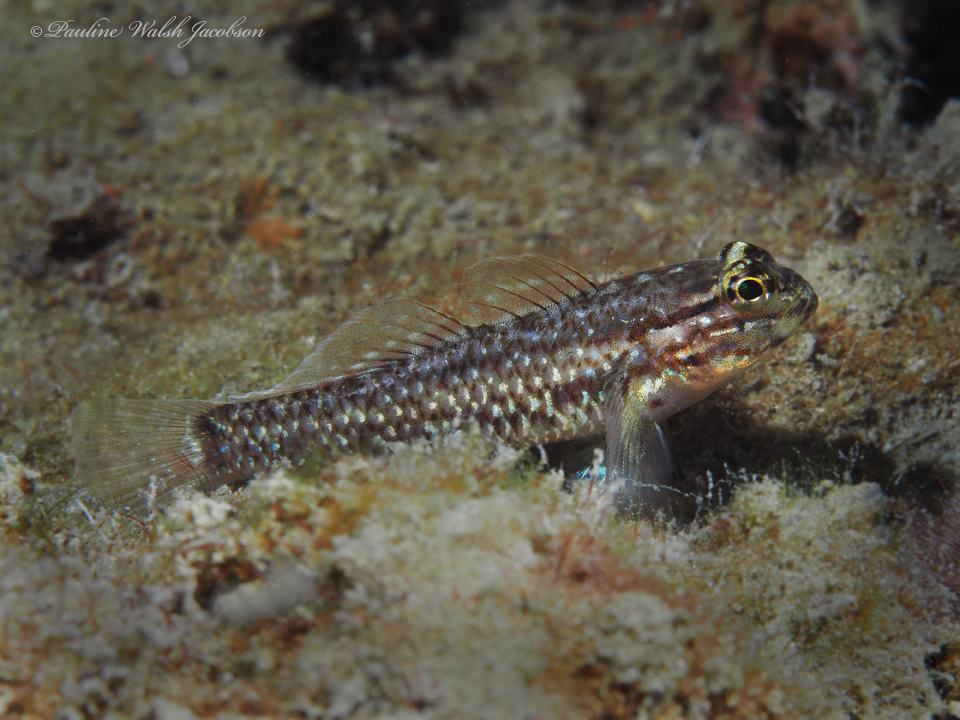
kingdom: Animalia
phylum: Chordata
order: Perciformes
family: Gobiidae
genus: Coryphopterus
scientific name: Coryphopterus dicrus
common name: Colon goby
